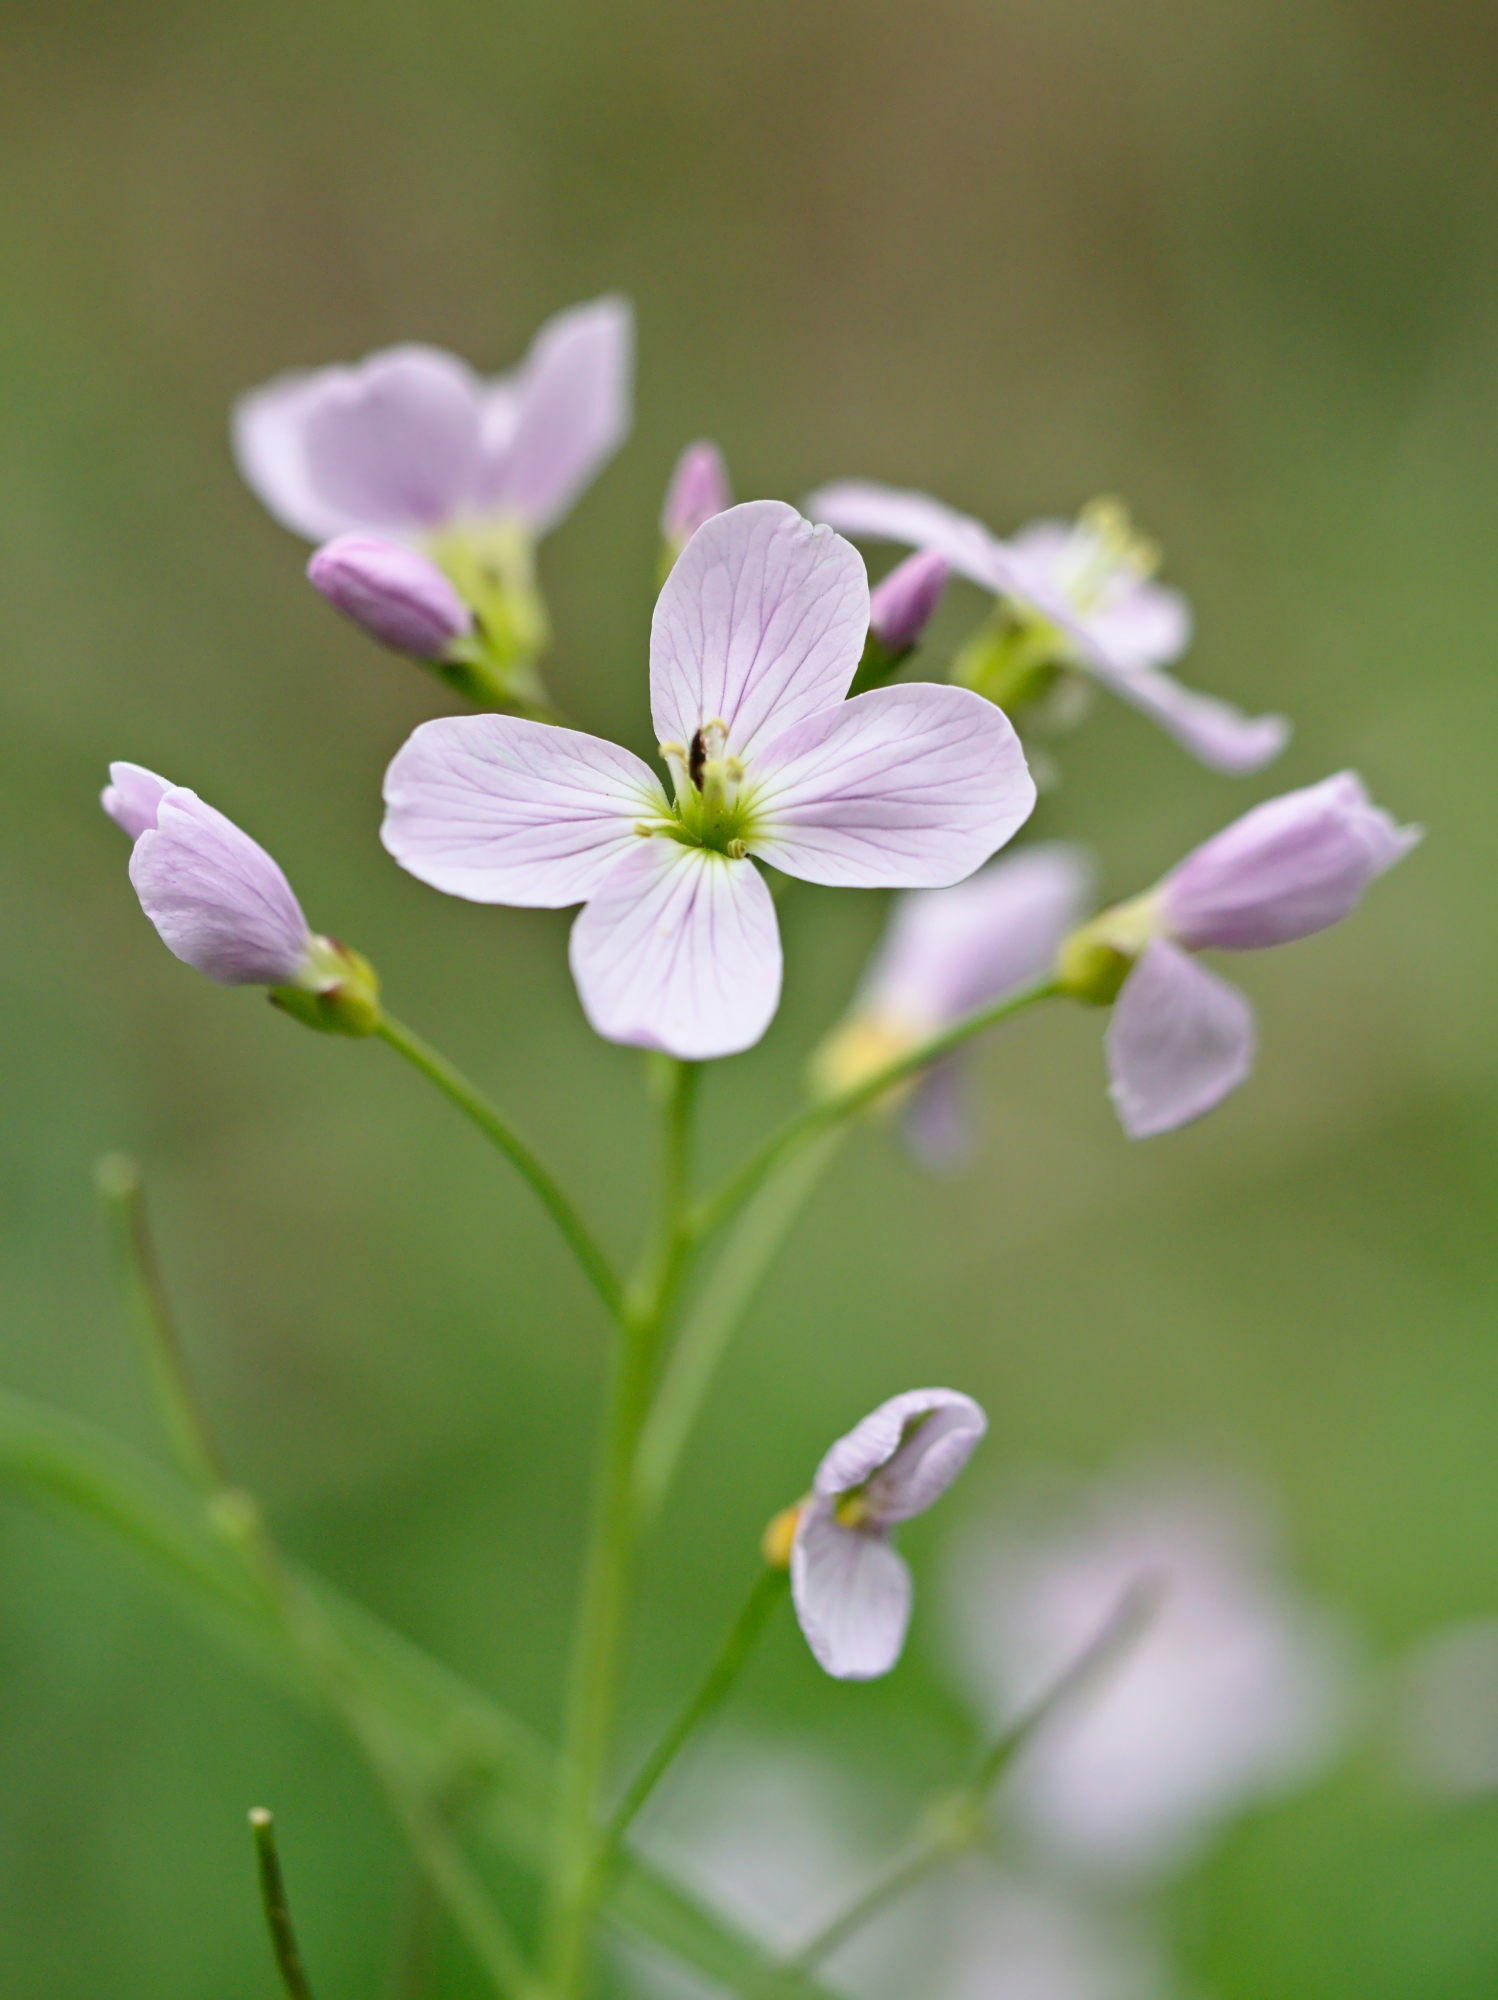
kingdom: Plantae
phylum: Tracheophyta
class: Magnoliopsida
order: Brassicales
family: Brassicaceae
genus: Cardamine
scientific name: Cardamine pratensis
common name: Cuckoo flower
